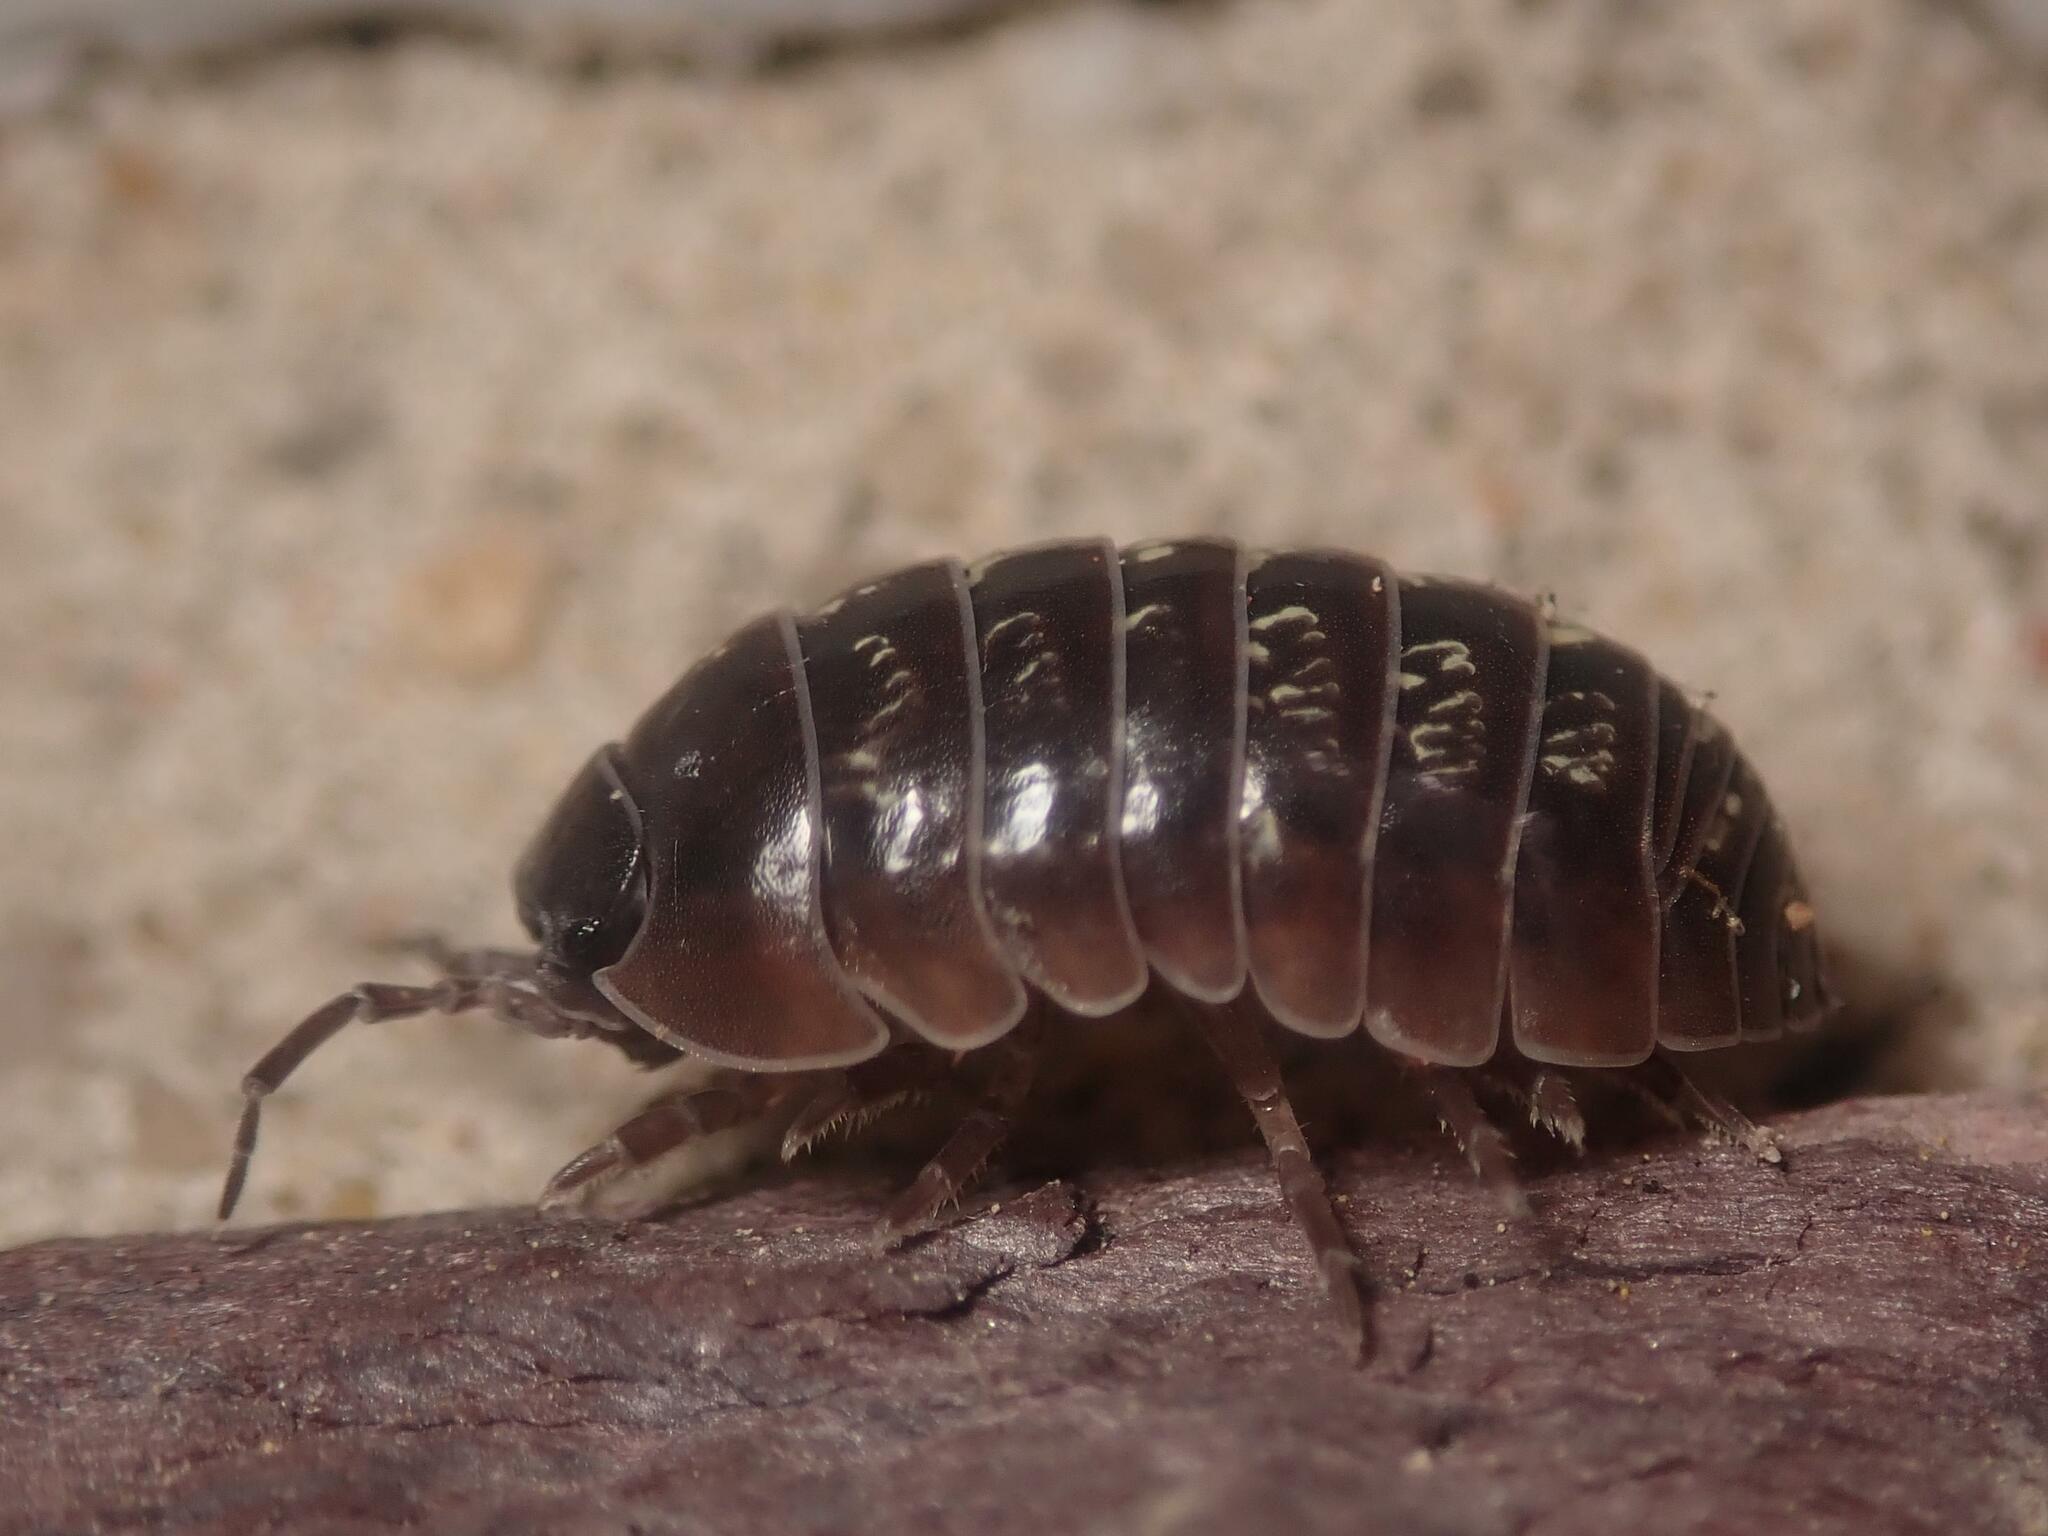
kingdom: Animalia
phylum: Arthropoda
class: Malacostraca
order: Isopoda
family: Armadillidiidae
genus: Armadillidium
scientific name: Armadillidium vulgare
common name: Common pill woodlouse
